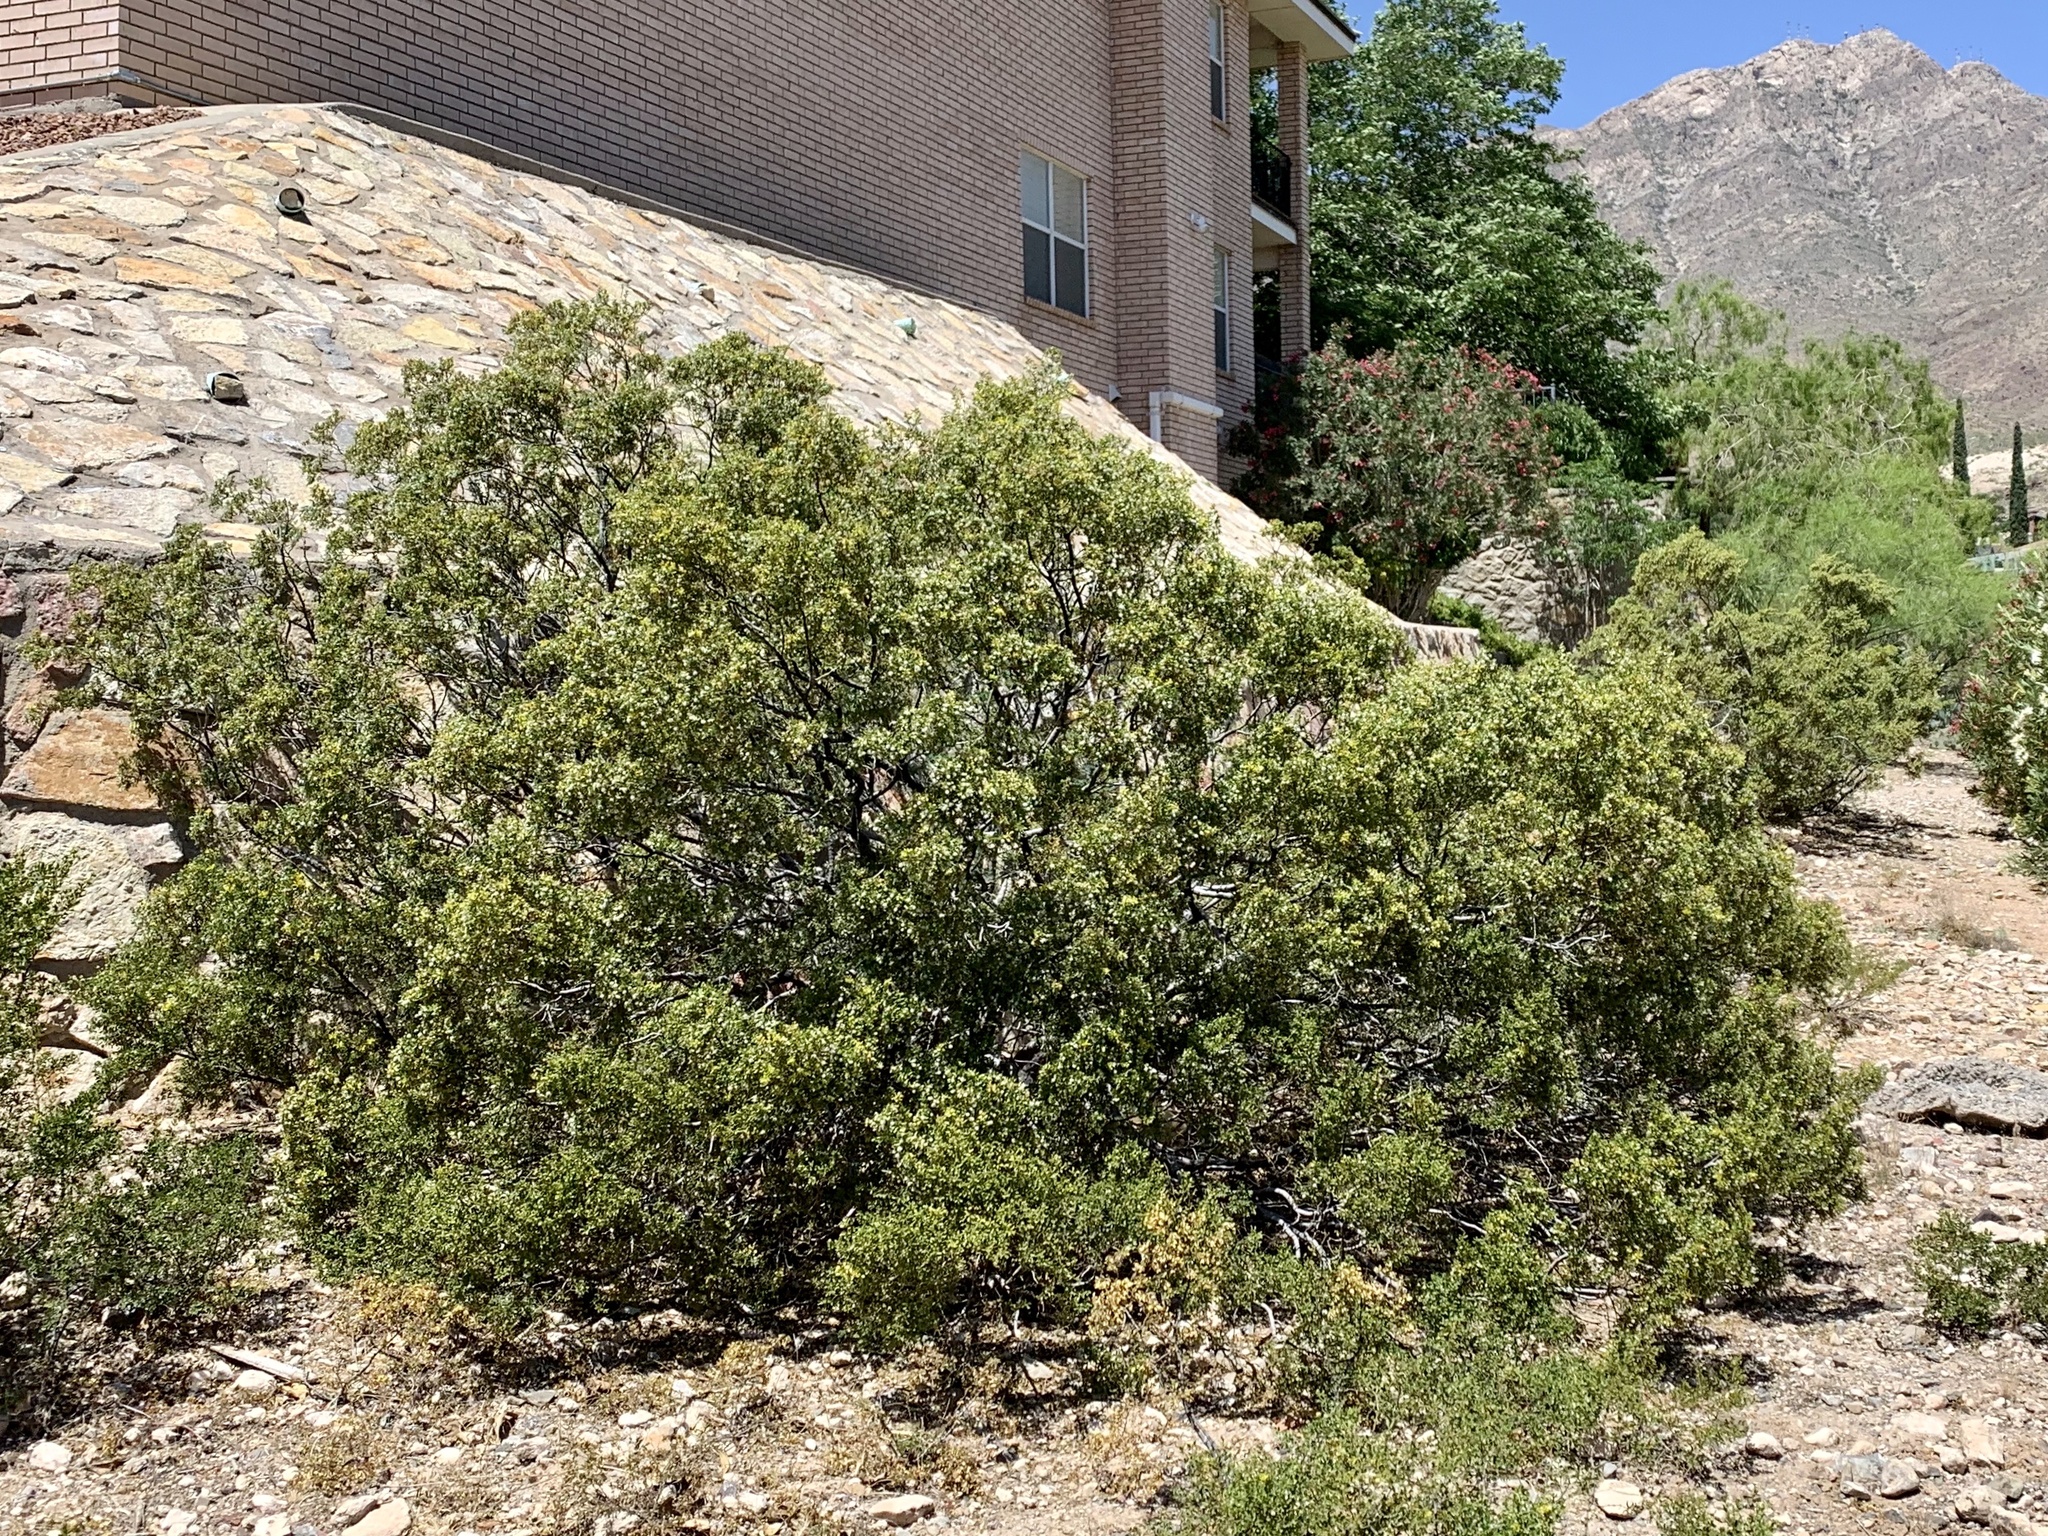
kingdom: Plantae
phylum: Tracheophyta
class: Magnoliopsida
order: Zygophyllales
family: Zygophyllaceae
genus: Larrea
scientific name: Larrea tridentata
